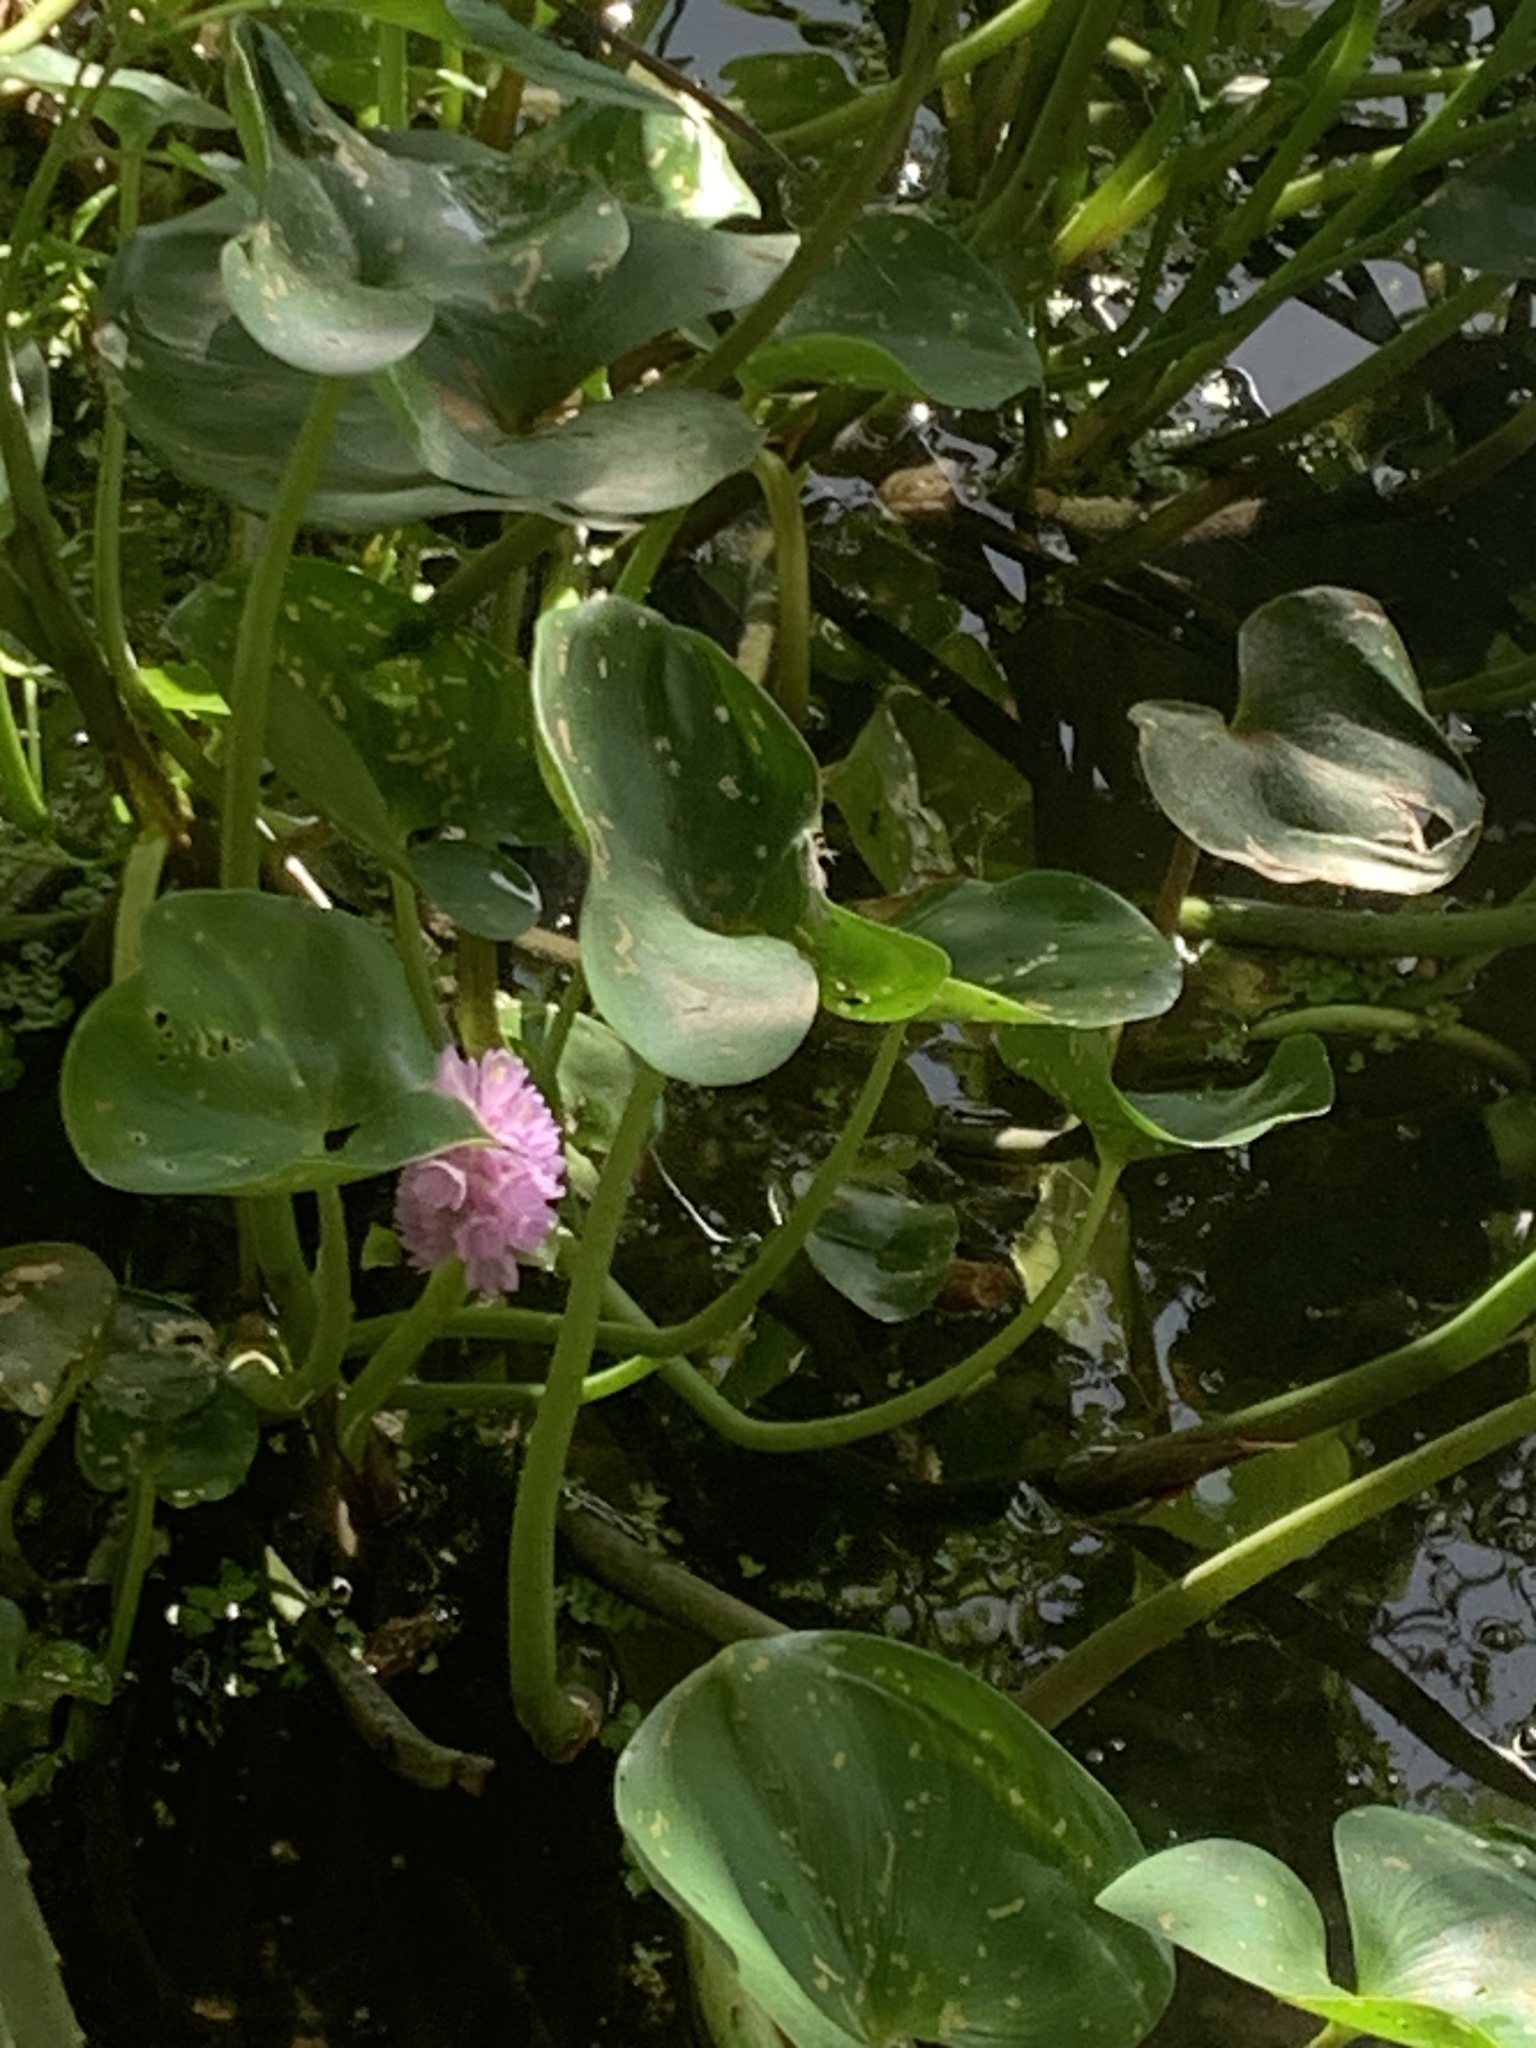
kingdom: Plantae
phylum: Tracheophyta
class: Liliopsida
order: Commelinales
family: Pontederiaceae
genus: Pontederia
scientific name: Pontederia rotundifolia
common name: Tropical pickerel-weed
